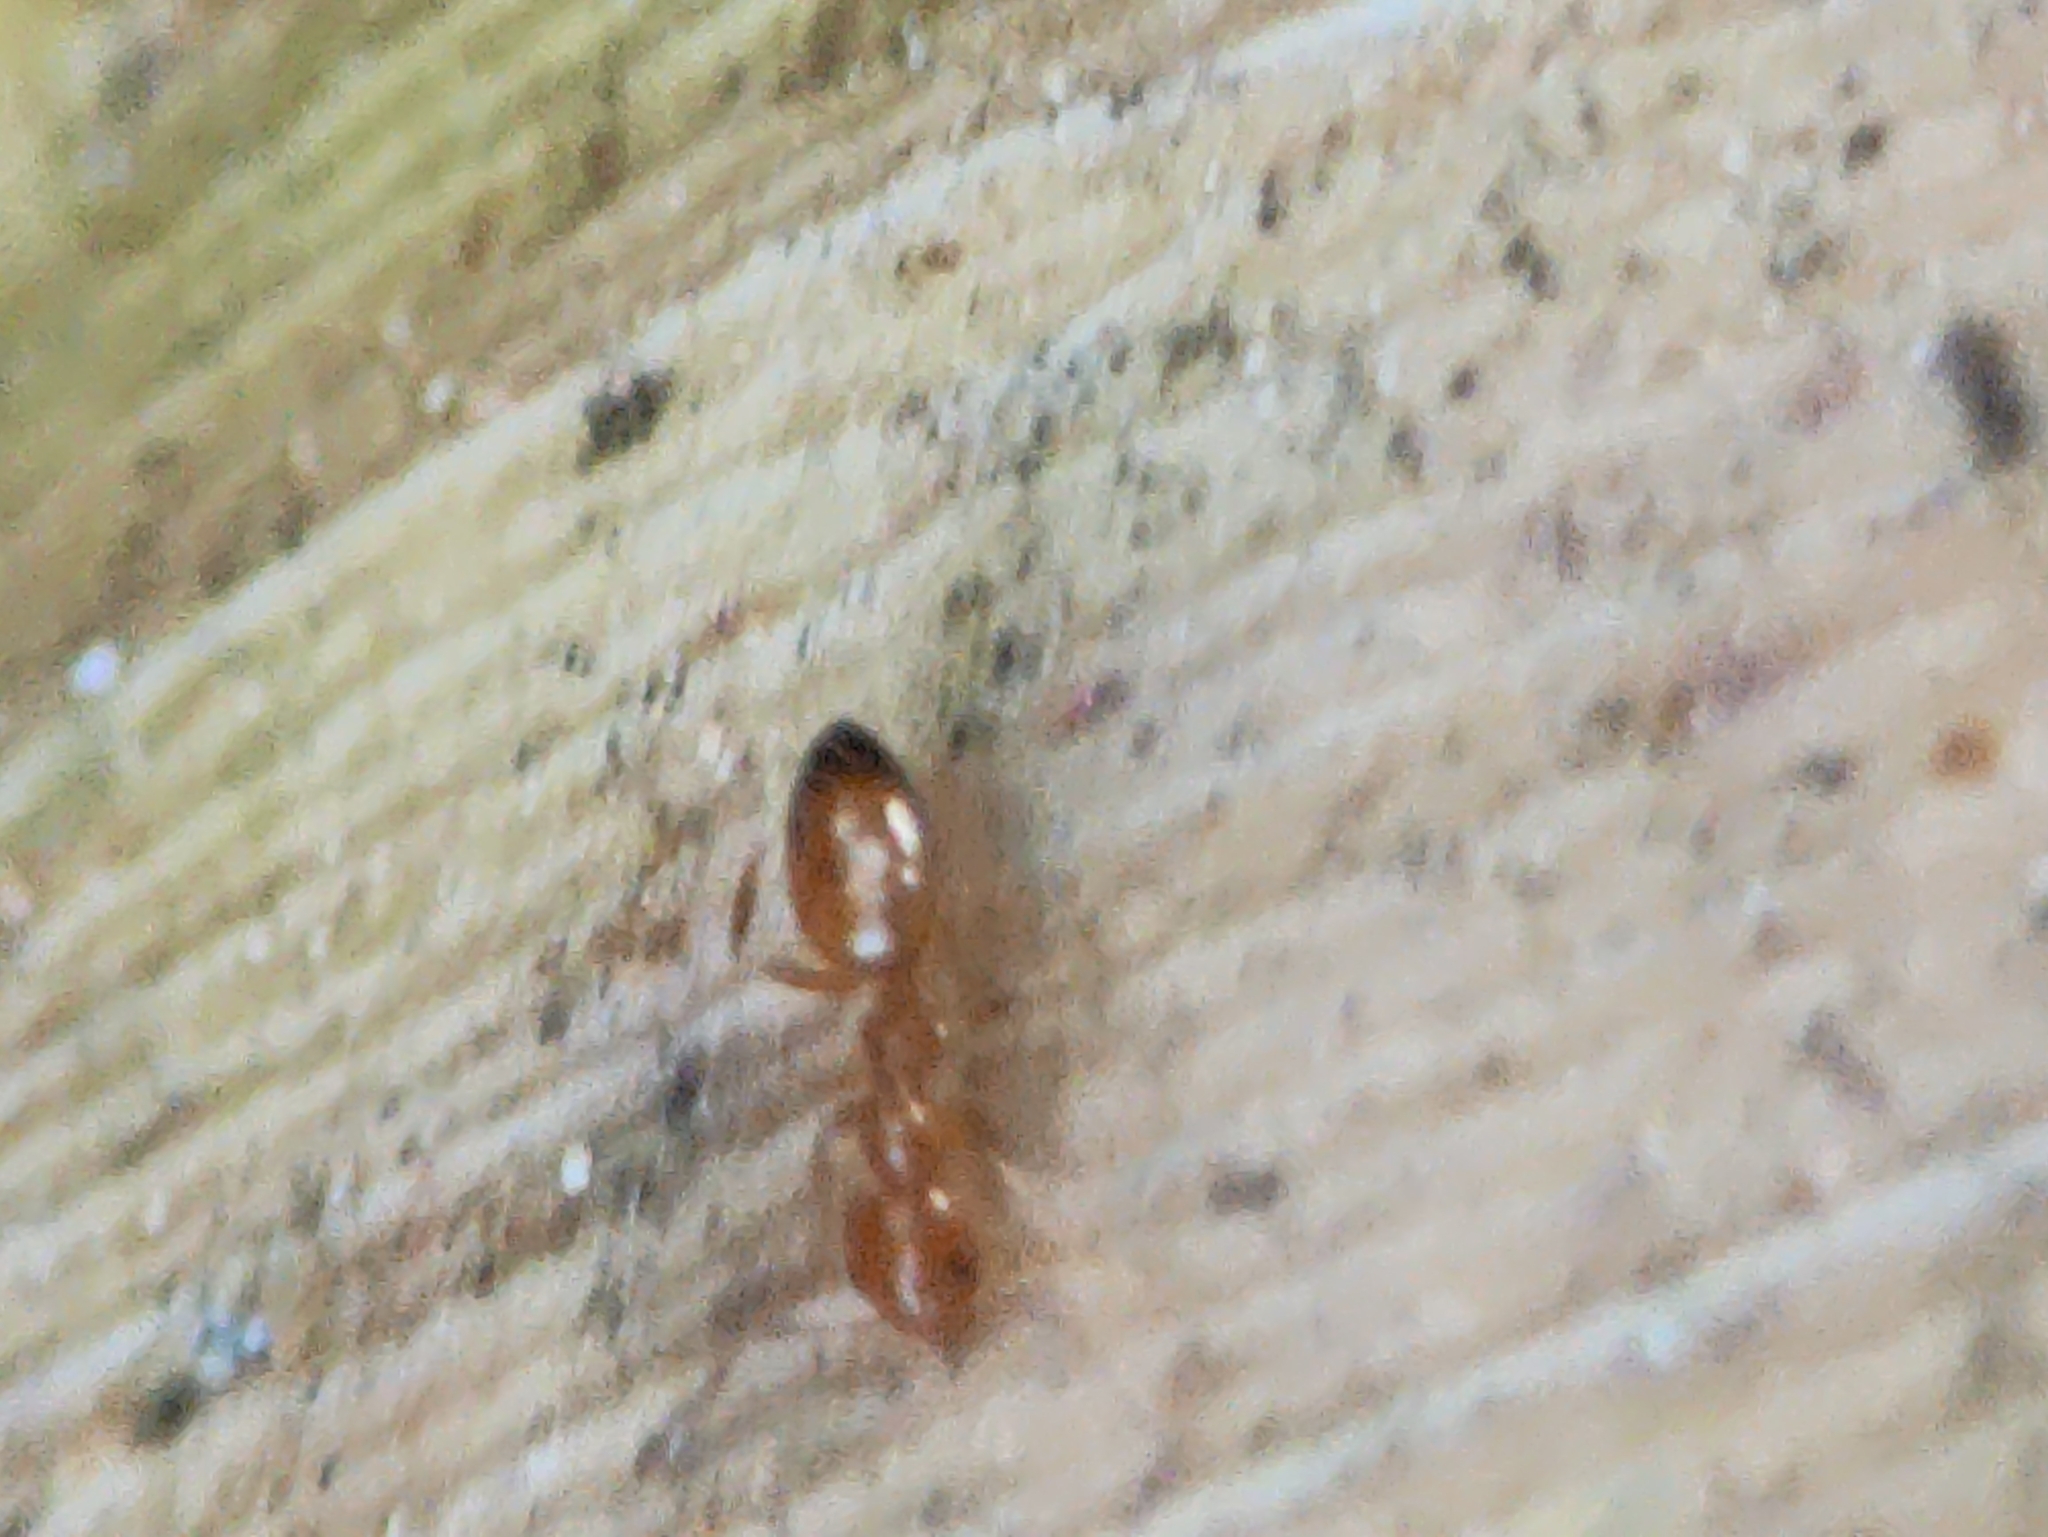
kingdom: Animalia
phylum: Arthropoda
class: Insecta
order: Hymenoptera
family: Formicidae
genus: Plagiolepis
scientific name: Plagiolepis alluaudi
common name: Little yellow ant
